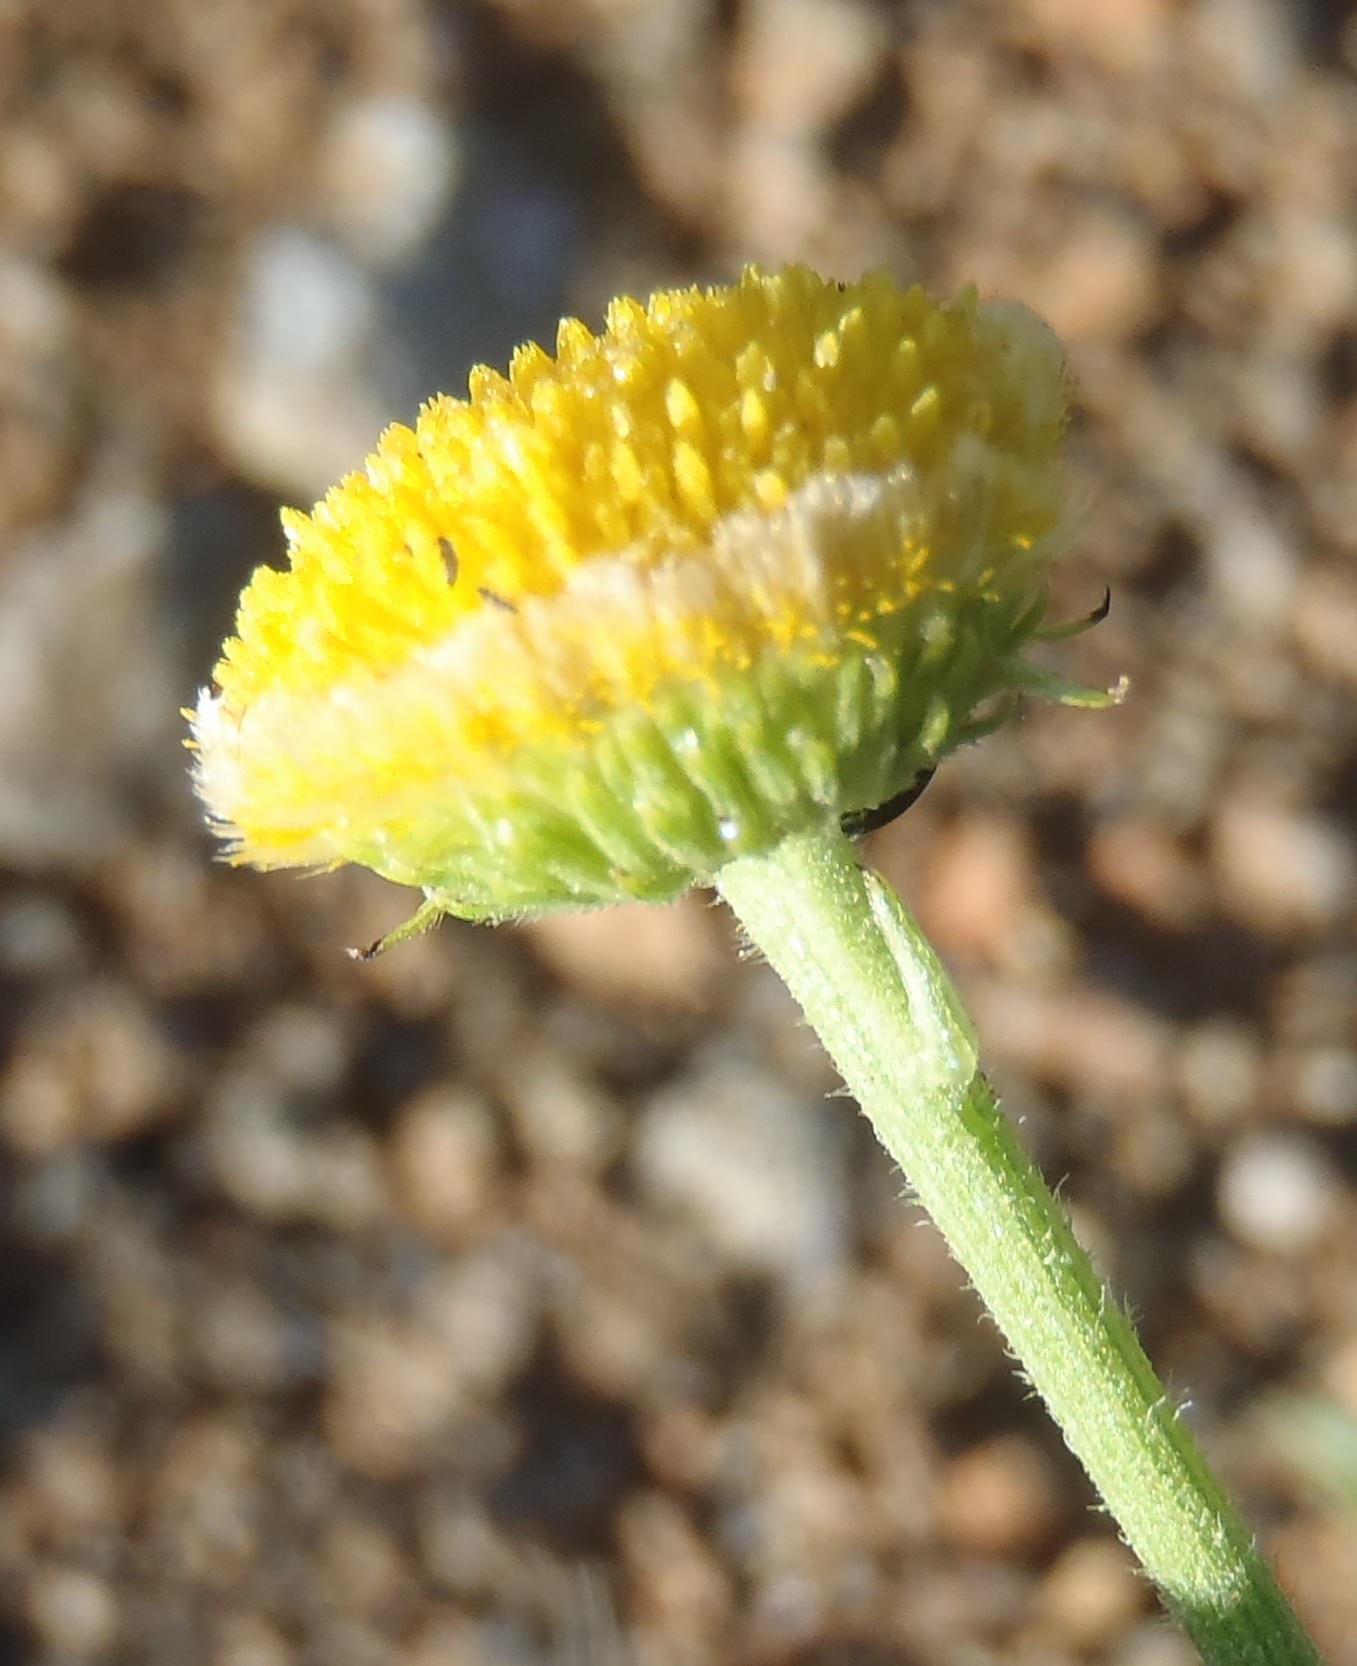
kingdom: Plantae
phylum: Tracheophyta
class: Magnoliopsida
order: Asterales
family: Asteraceae
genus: Nidorella
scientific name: Nidorella podocephala
